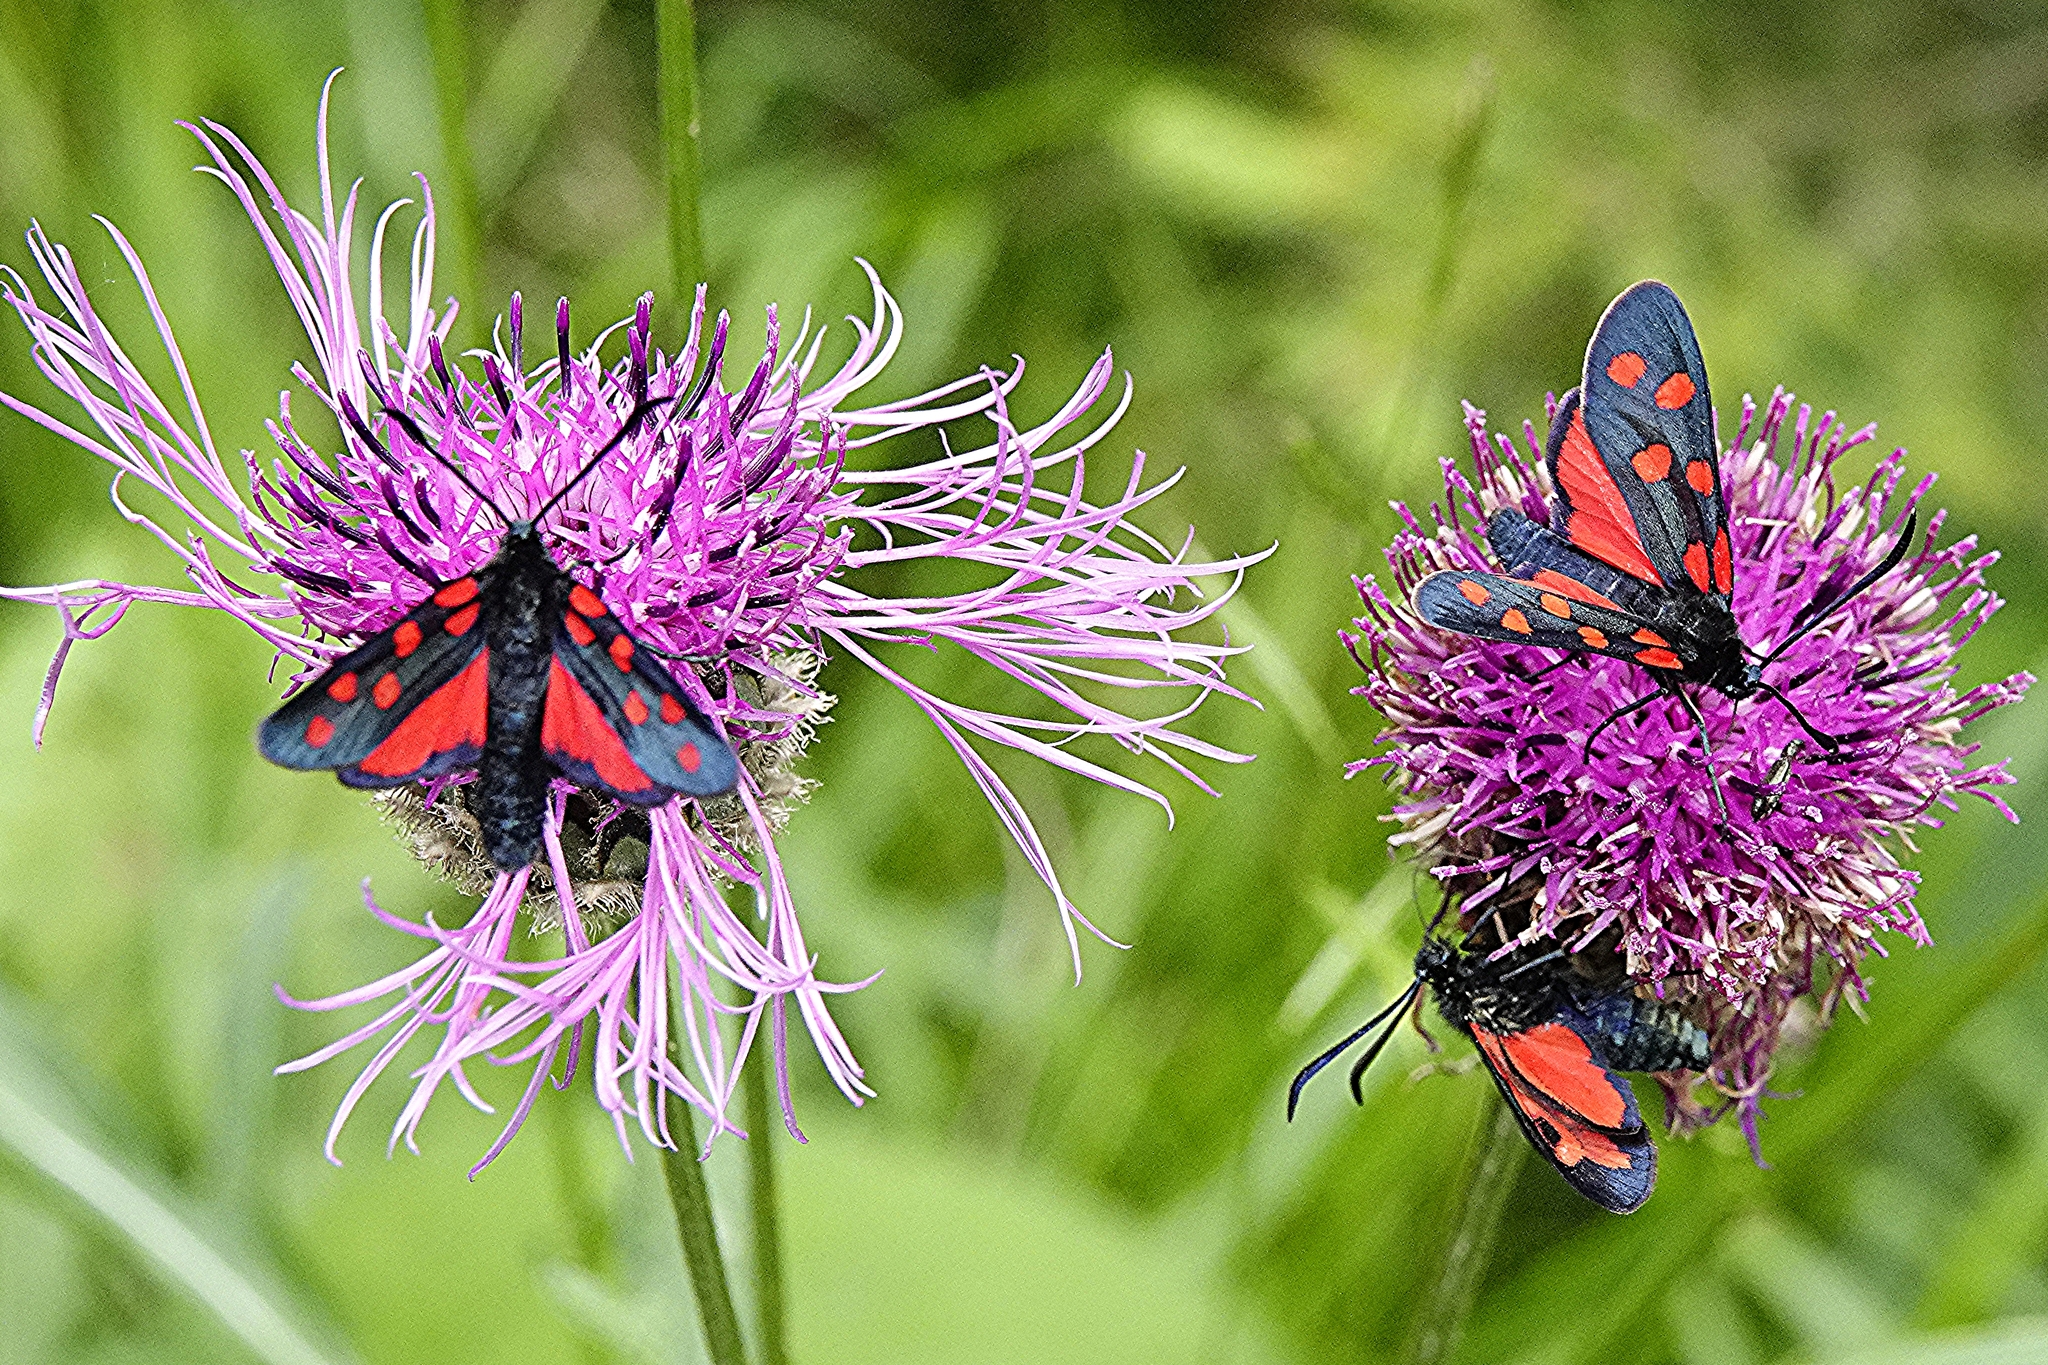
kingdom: Animalia
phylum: Arthropoda
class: Insecta
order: Lepidoptera
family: Zygaenidae
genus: Zygaena
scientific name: Zygaena transalpina
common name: Southern six spot burnet
